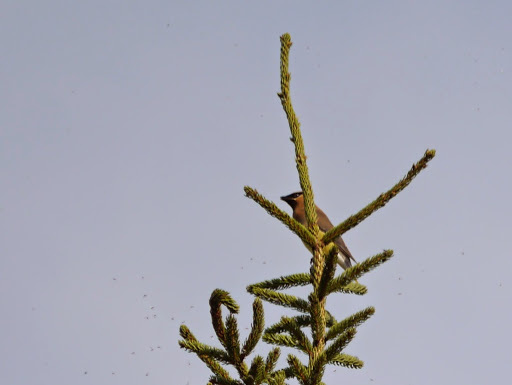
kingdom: Animalia
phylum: Chordata
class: Aves
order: Passeriformes
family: Bombycillidae
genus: Bombycilla
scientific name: Bombycilla cedrorum
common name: Cedar waxwing
